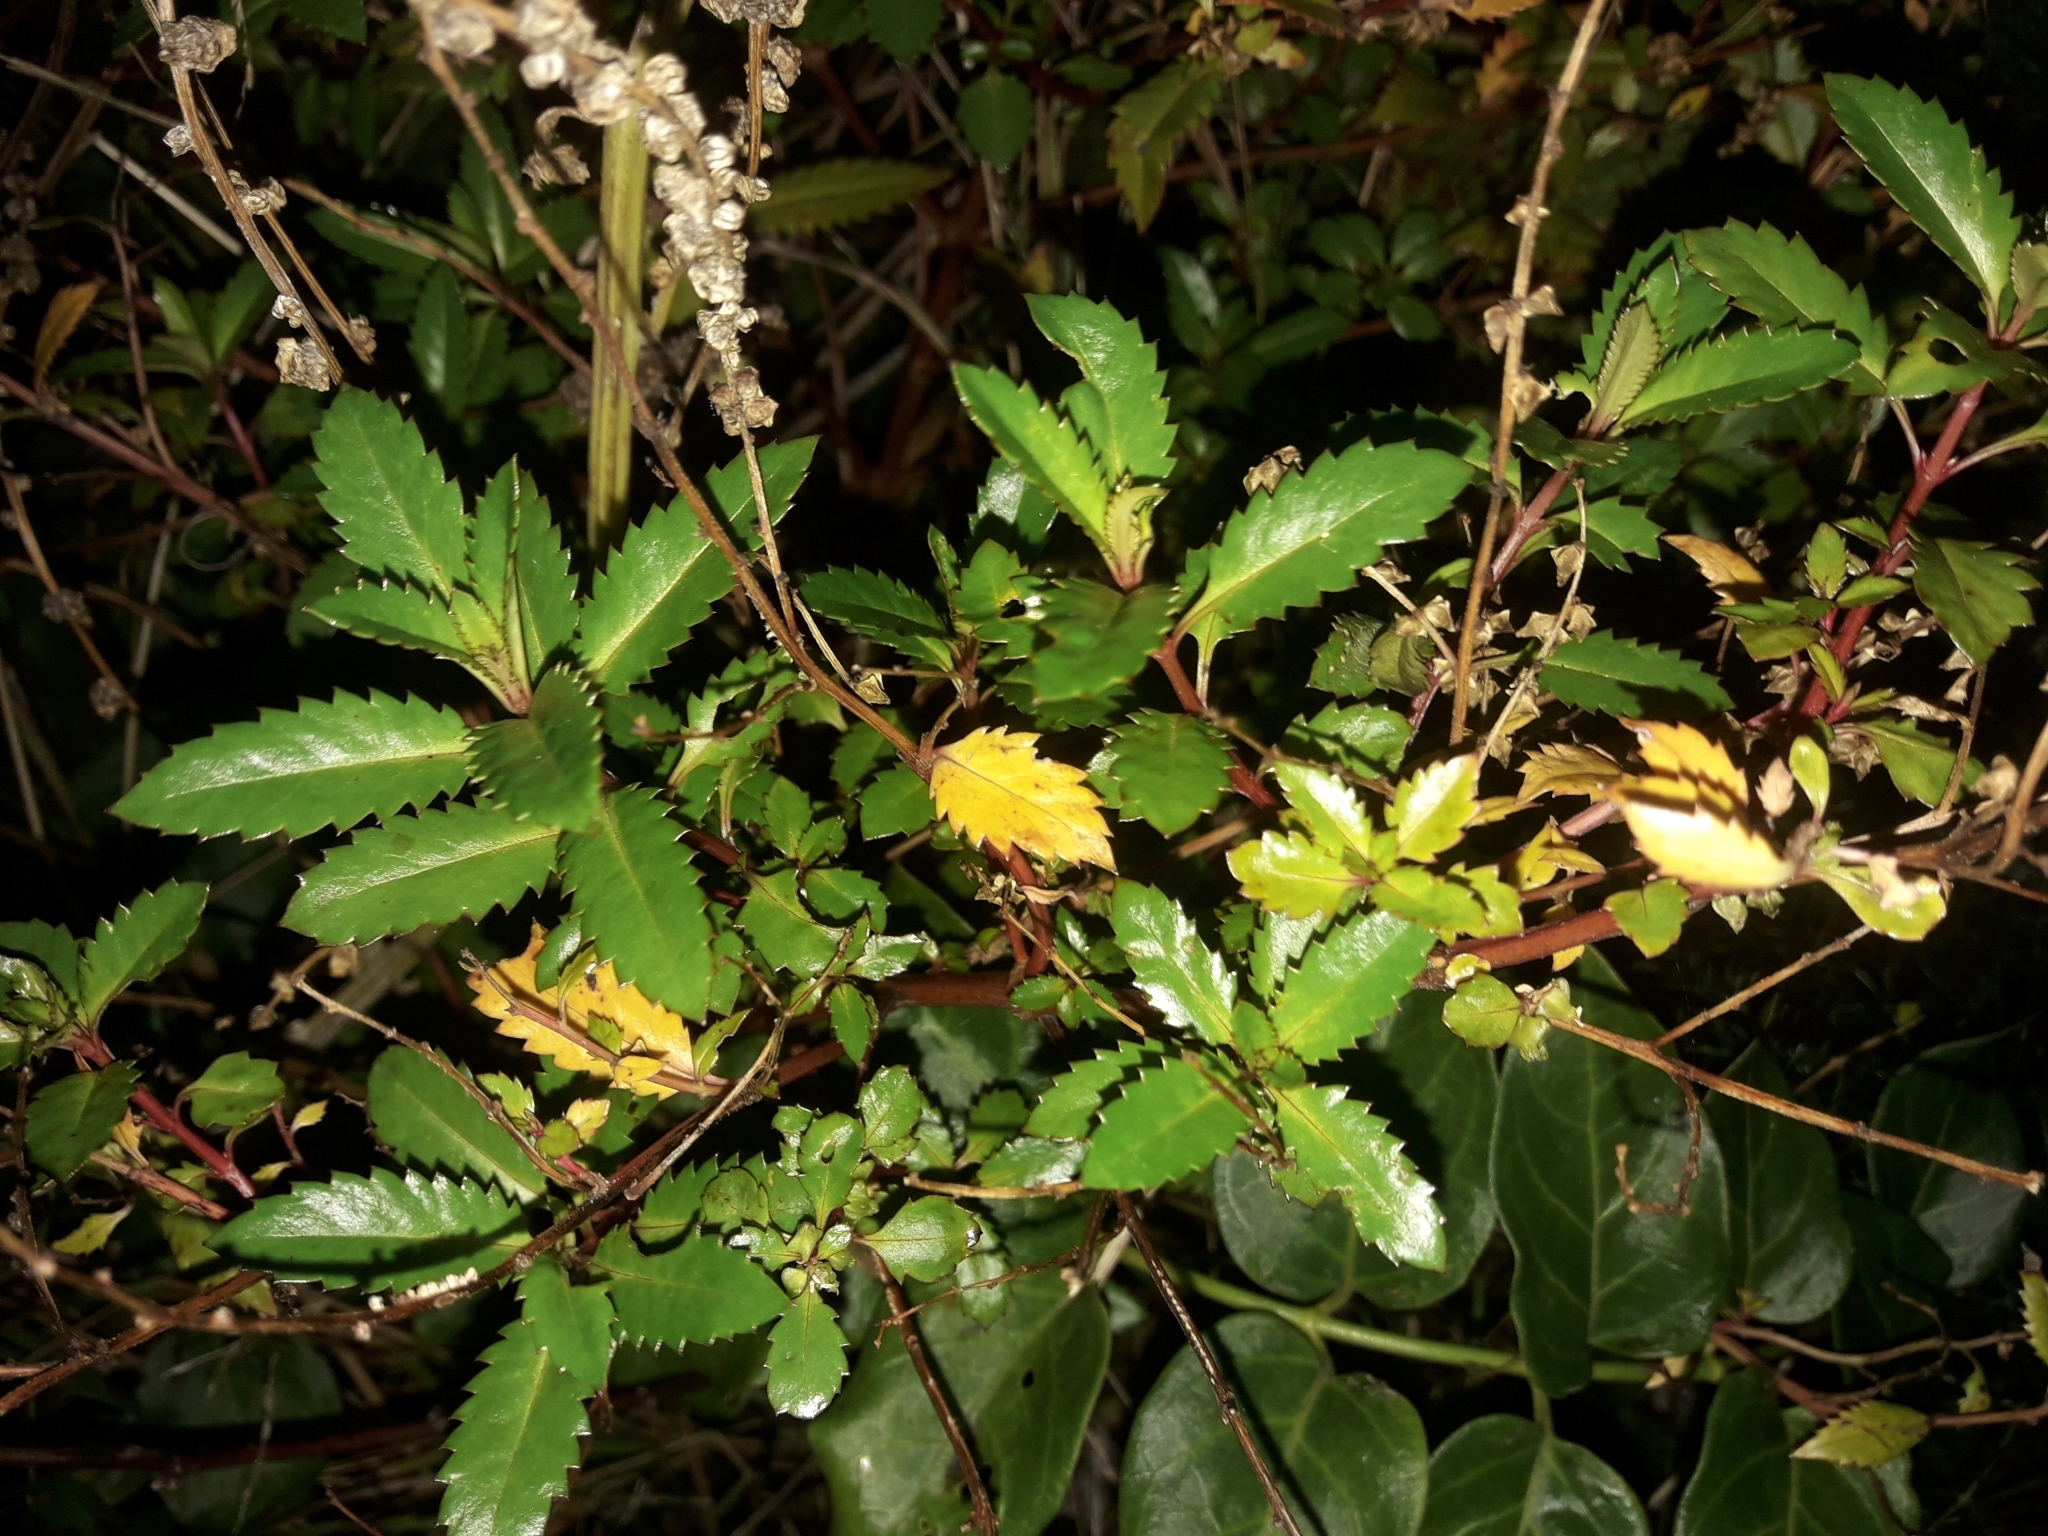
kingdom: Plantae
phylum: Tracheophyta
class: Magnoliopsida
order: Saxifragales
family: Haloragaceae
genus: Haloragis
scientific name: Haloragis erecta
